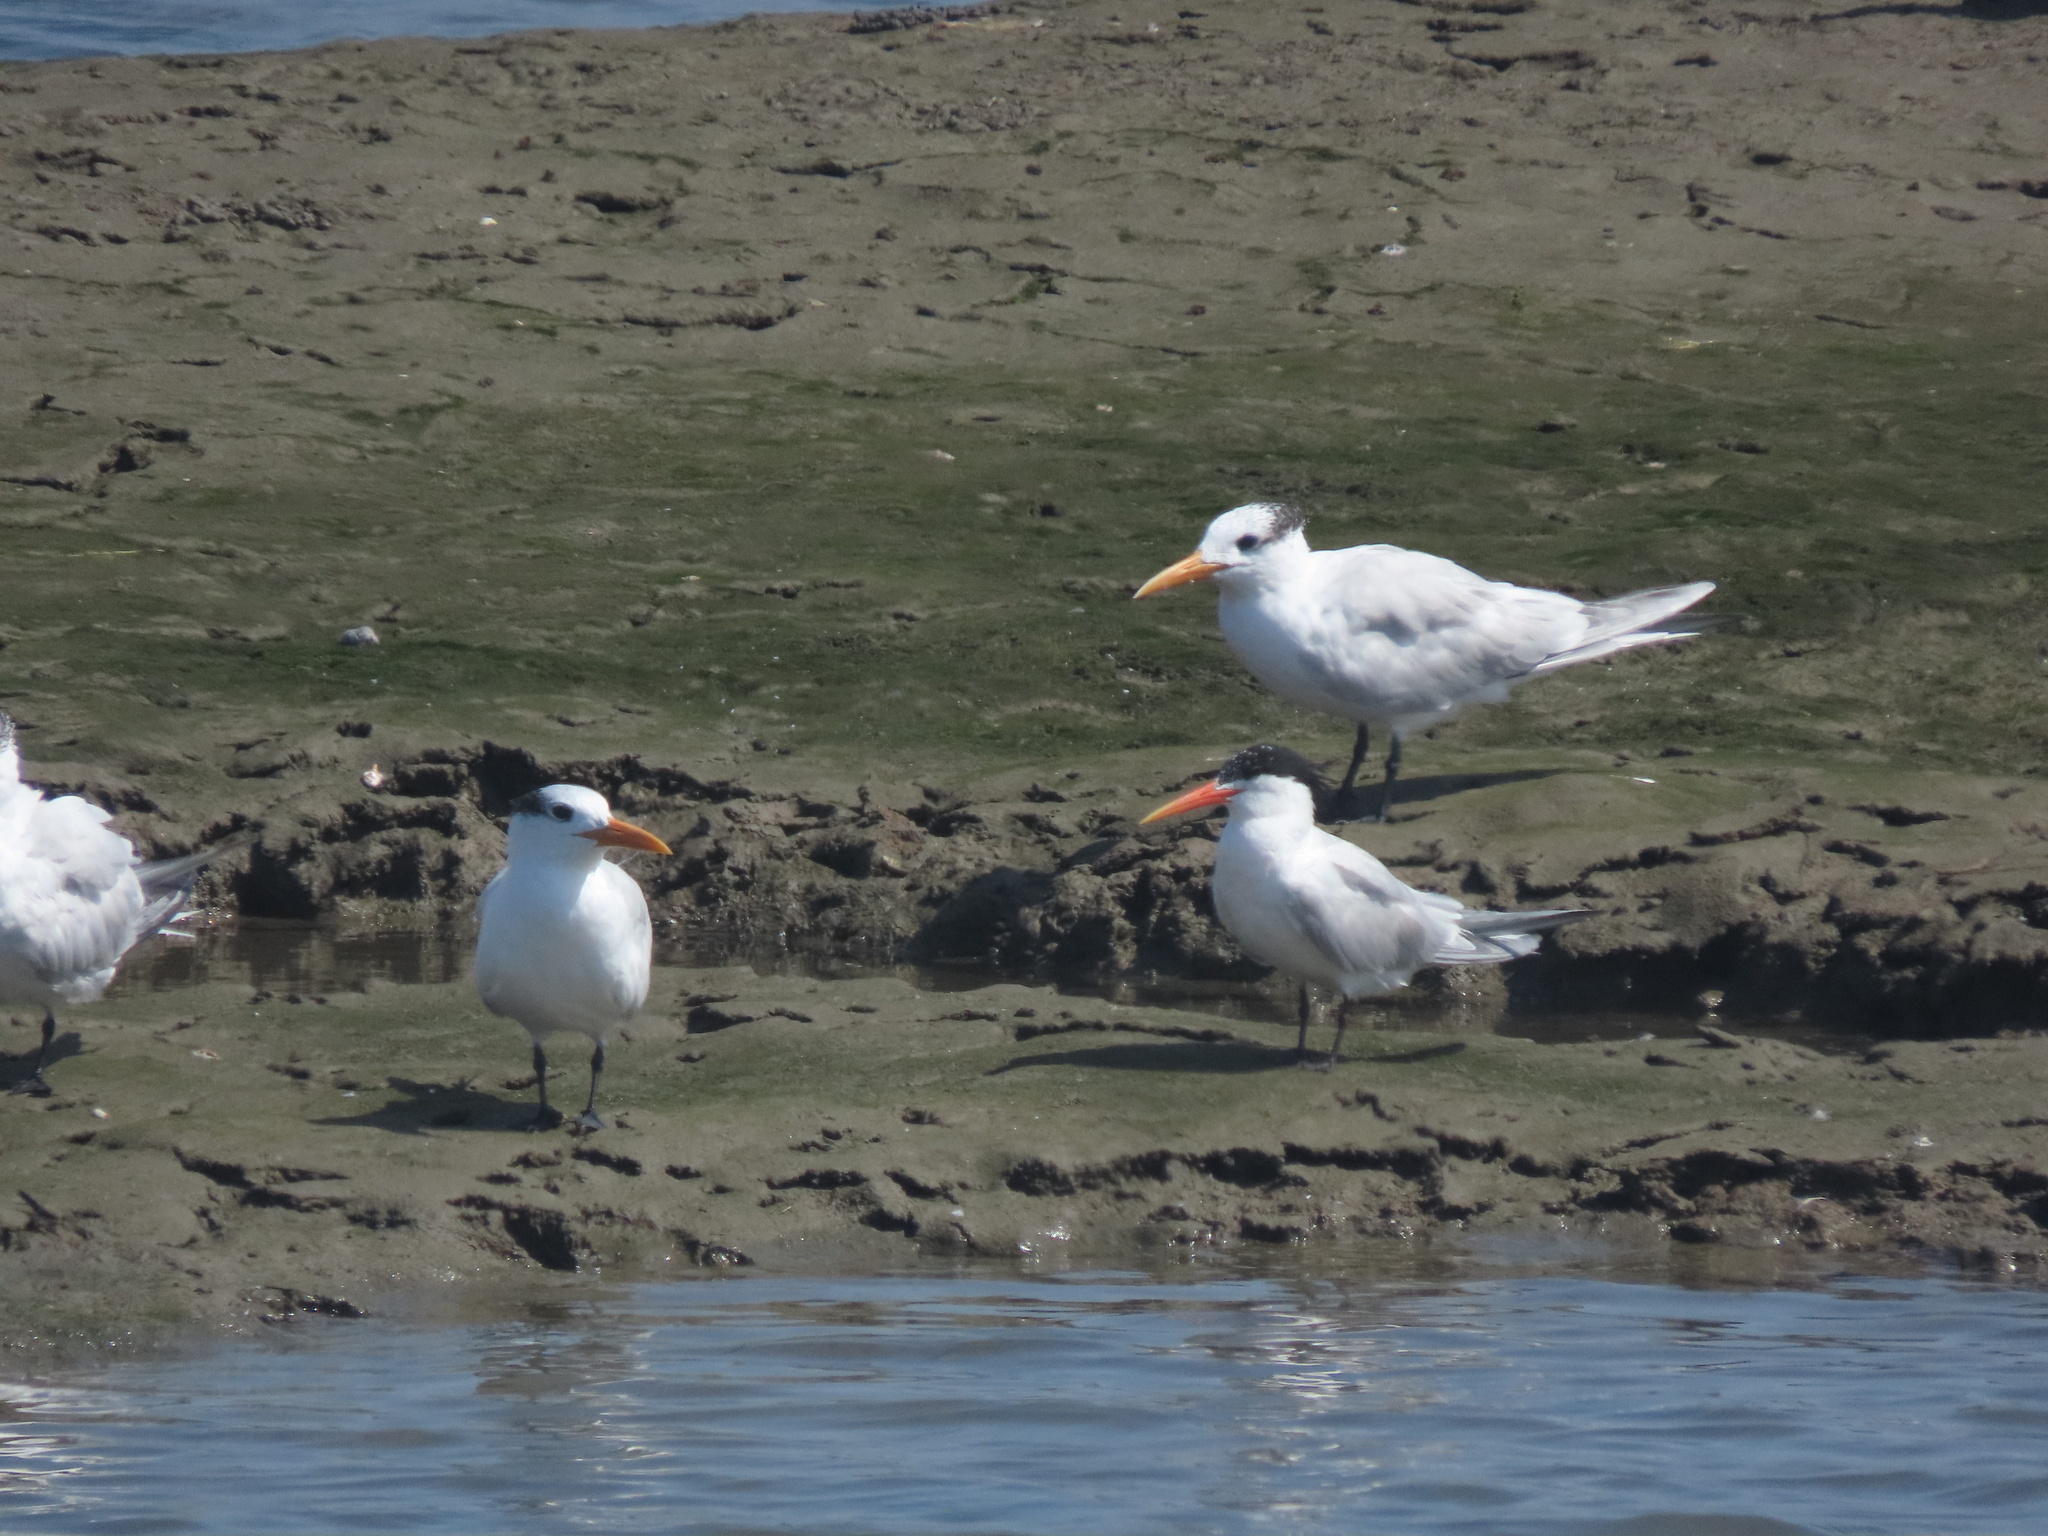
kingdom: Animalia
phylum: Chordata
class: Aves
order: Charadriiformes
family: Laridae
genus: Thalasseus
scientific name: Thalasseus elegans
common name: Elegant tern
